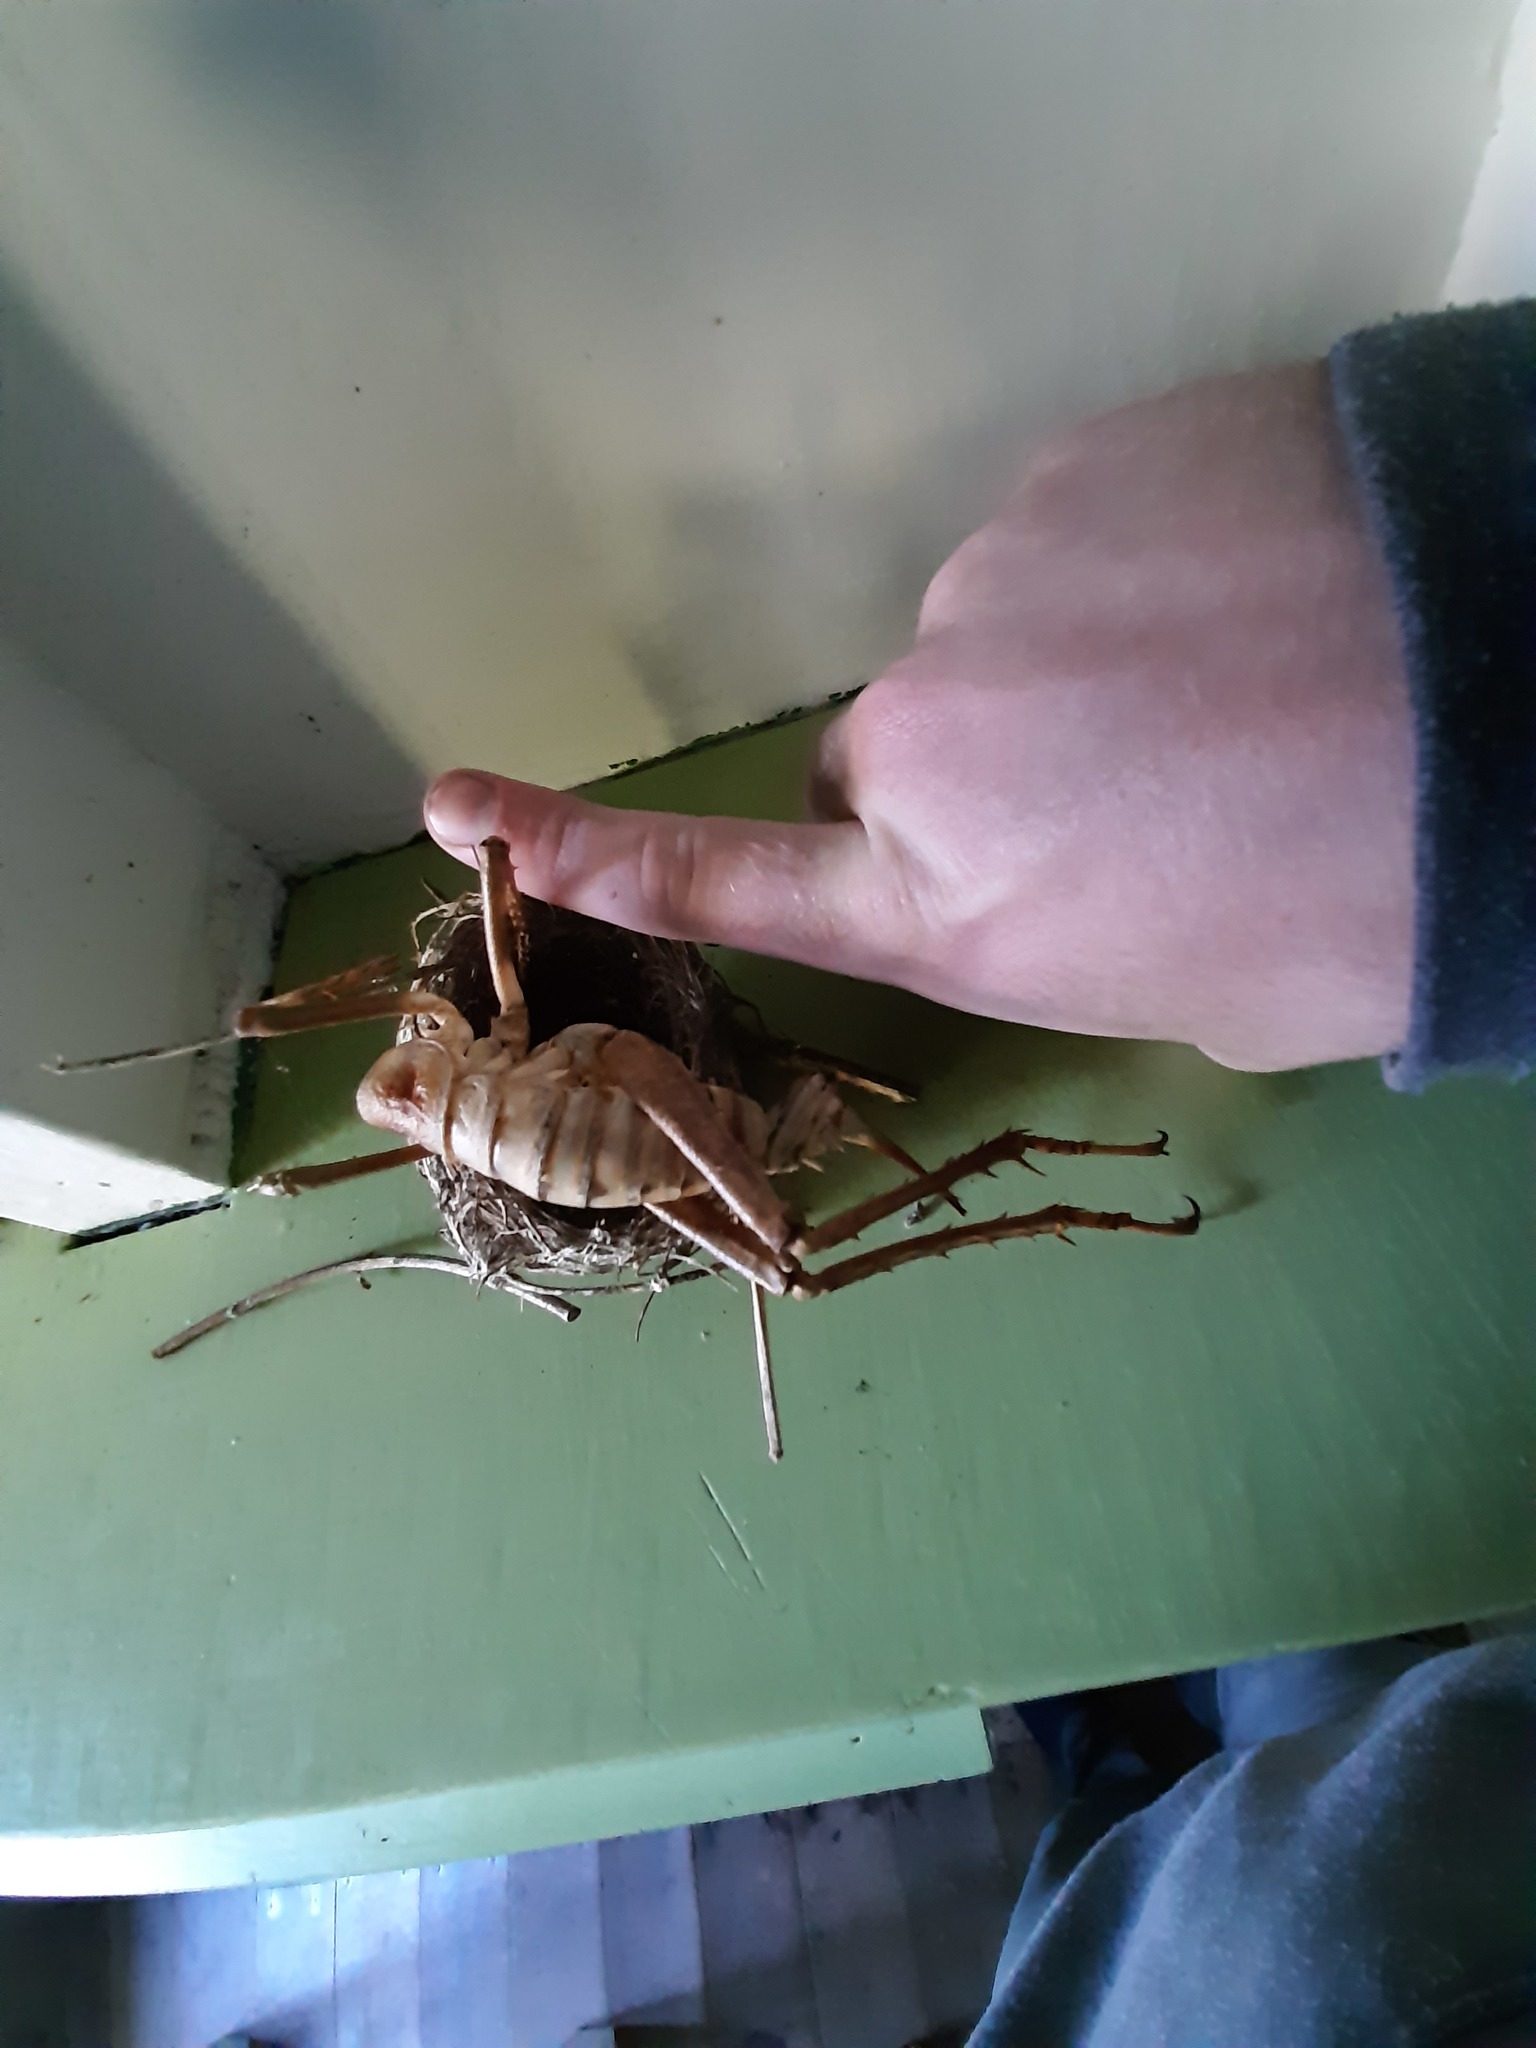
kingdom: Animalia
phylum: Arthropoda
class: Insecta
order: Orthoptera
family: Anostostomatidae
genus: Deinacrida
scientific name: Deinacrida heteracantha
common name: Wetapunga
